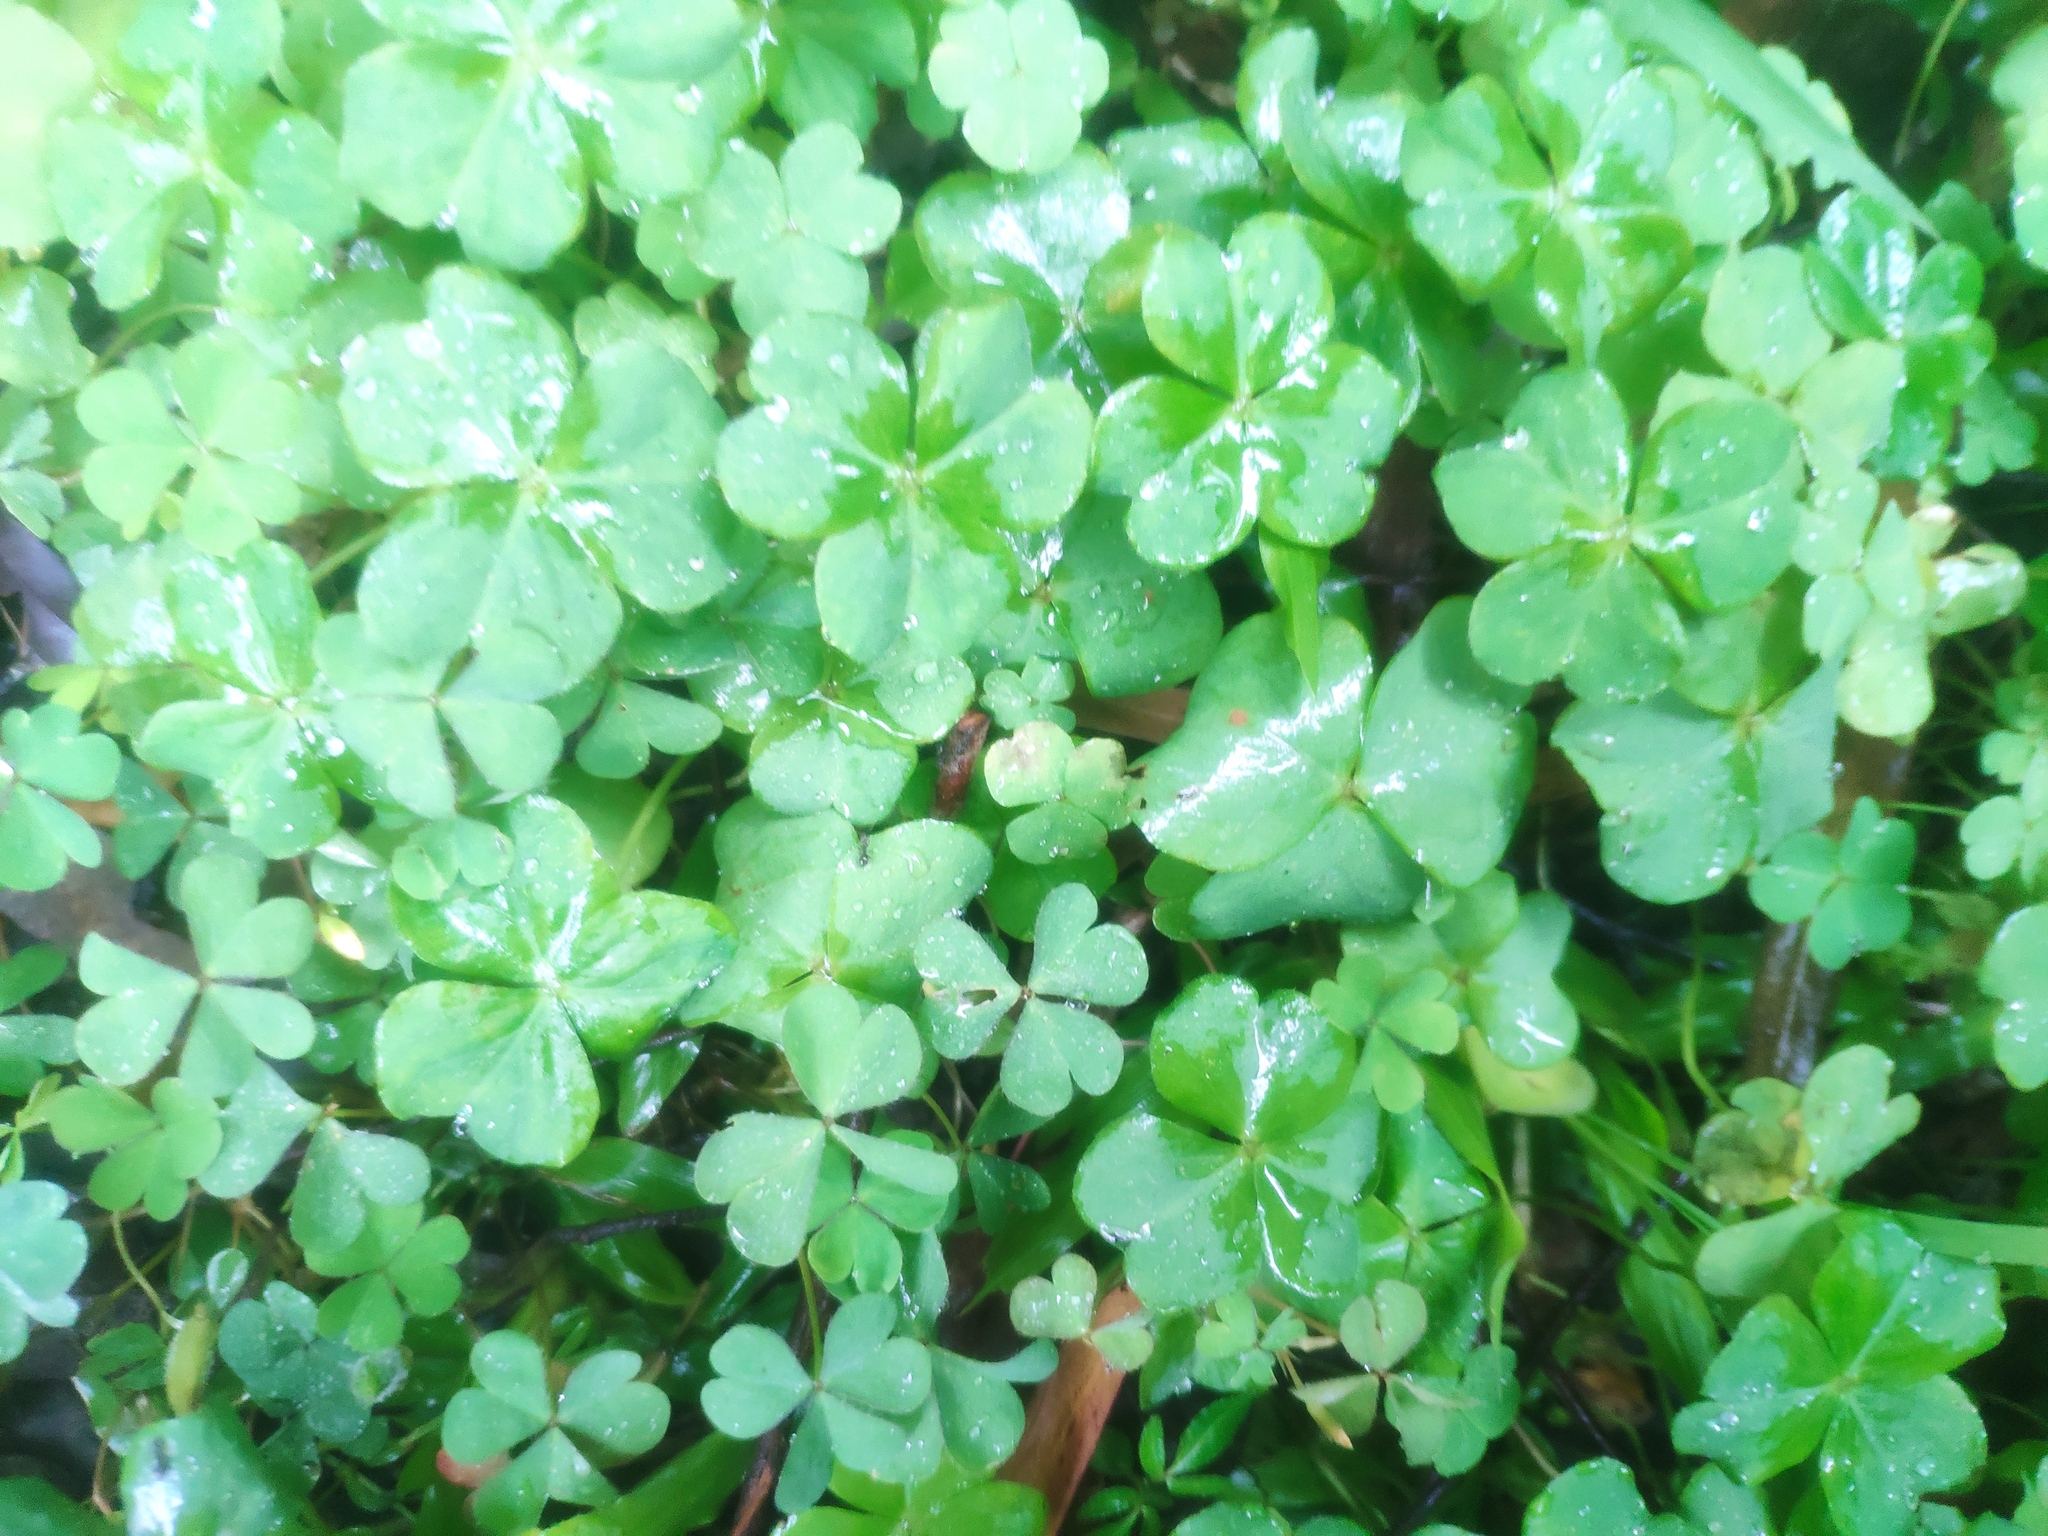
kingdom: Plantae
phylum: Tracheophyta
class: Magnoliopsida
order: Oxalidales
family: Oxalidaceae
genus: Oxalis
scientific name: Oxalis corniculata
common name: Procumbent yellow-sorrel
